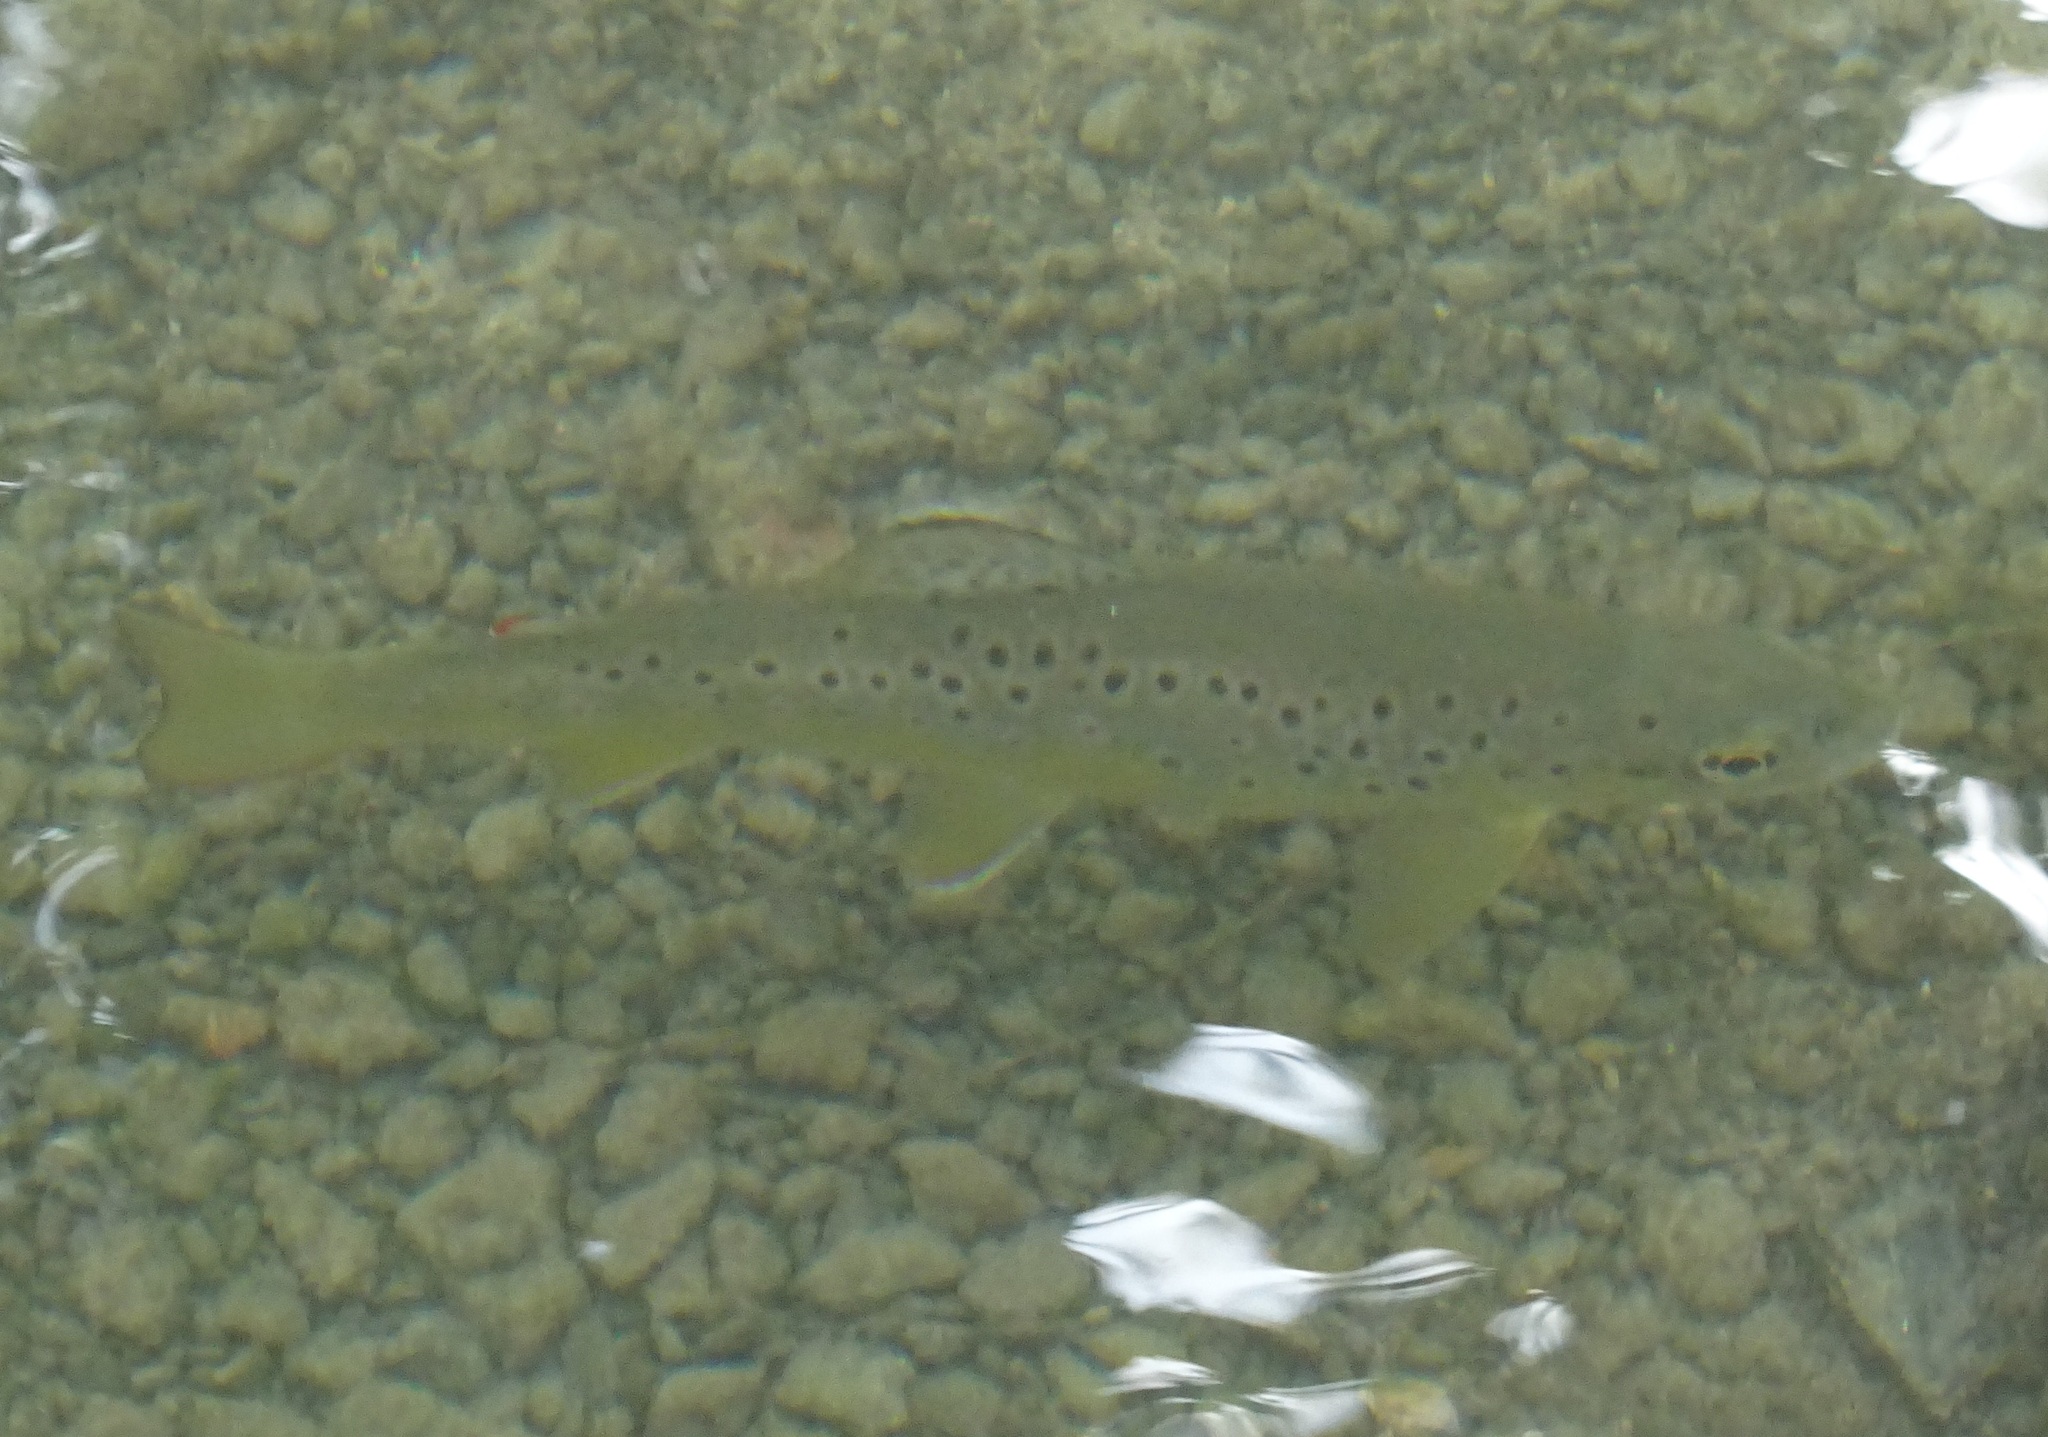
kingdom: Animalia
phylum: Chordata
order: Salmoniformes
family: Salmonidae
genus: Salmo
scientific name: Salmo trutta
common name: Brown trout
